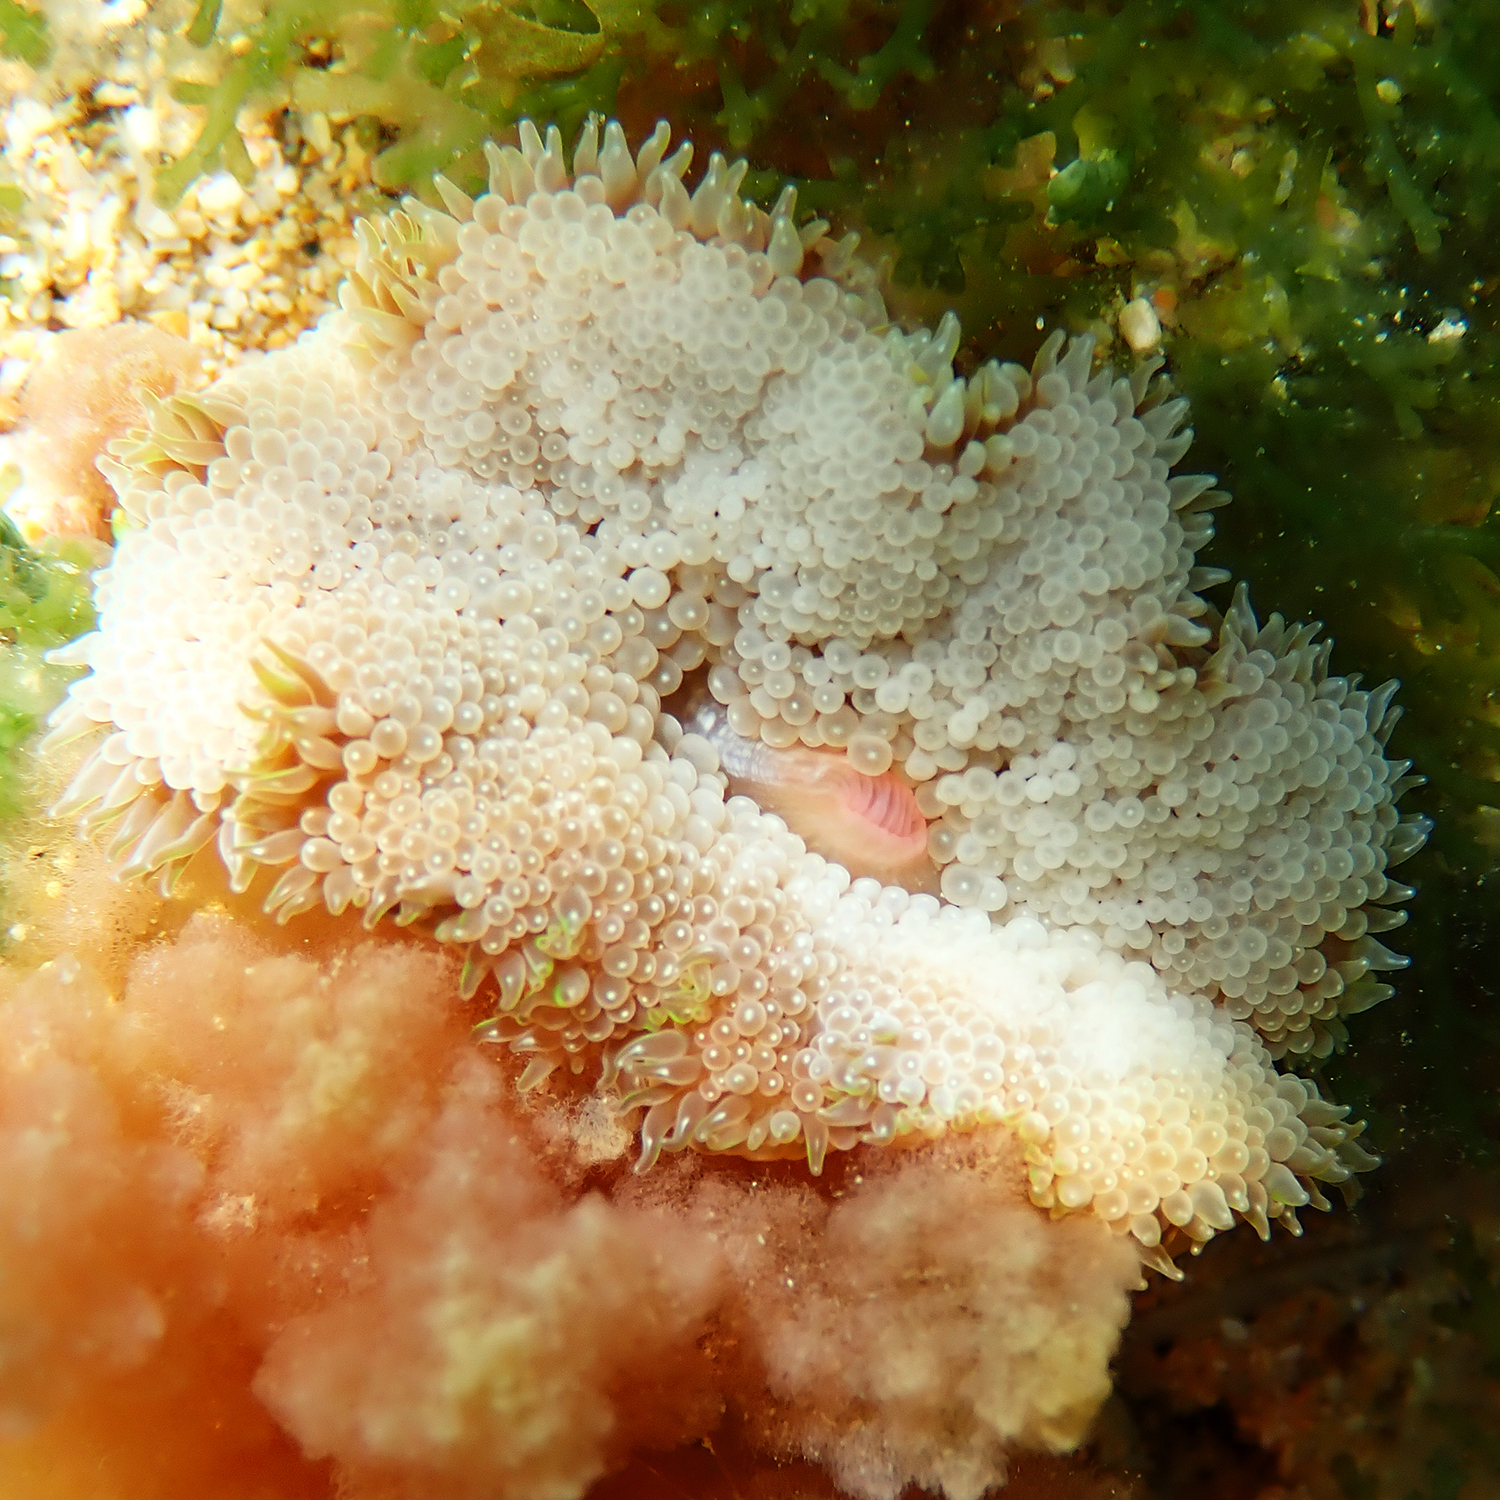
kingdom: Animalia
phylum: Cnidaria
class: Anthozoa
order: Actiniaria
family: Stichodactylidae
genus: Stichodactyla
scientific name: Stichodactyla tapetum
